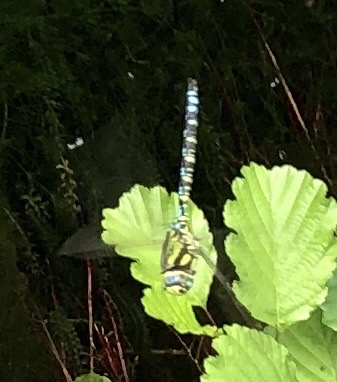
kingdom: Animalia
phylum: Arthropoda
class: Insecta
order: Odonata
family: Aeshnidae
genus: Aeshna
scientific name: Aeshna cyanea
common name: Southern hawker
